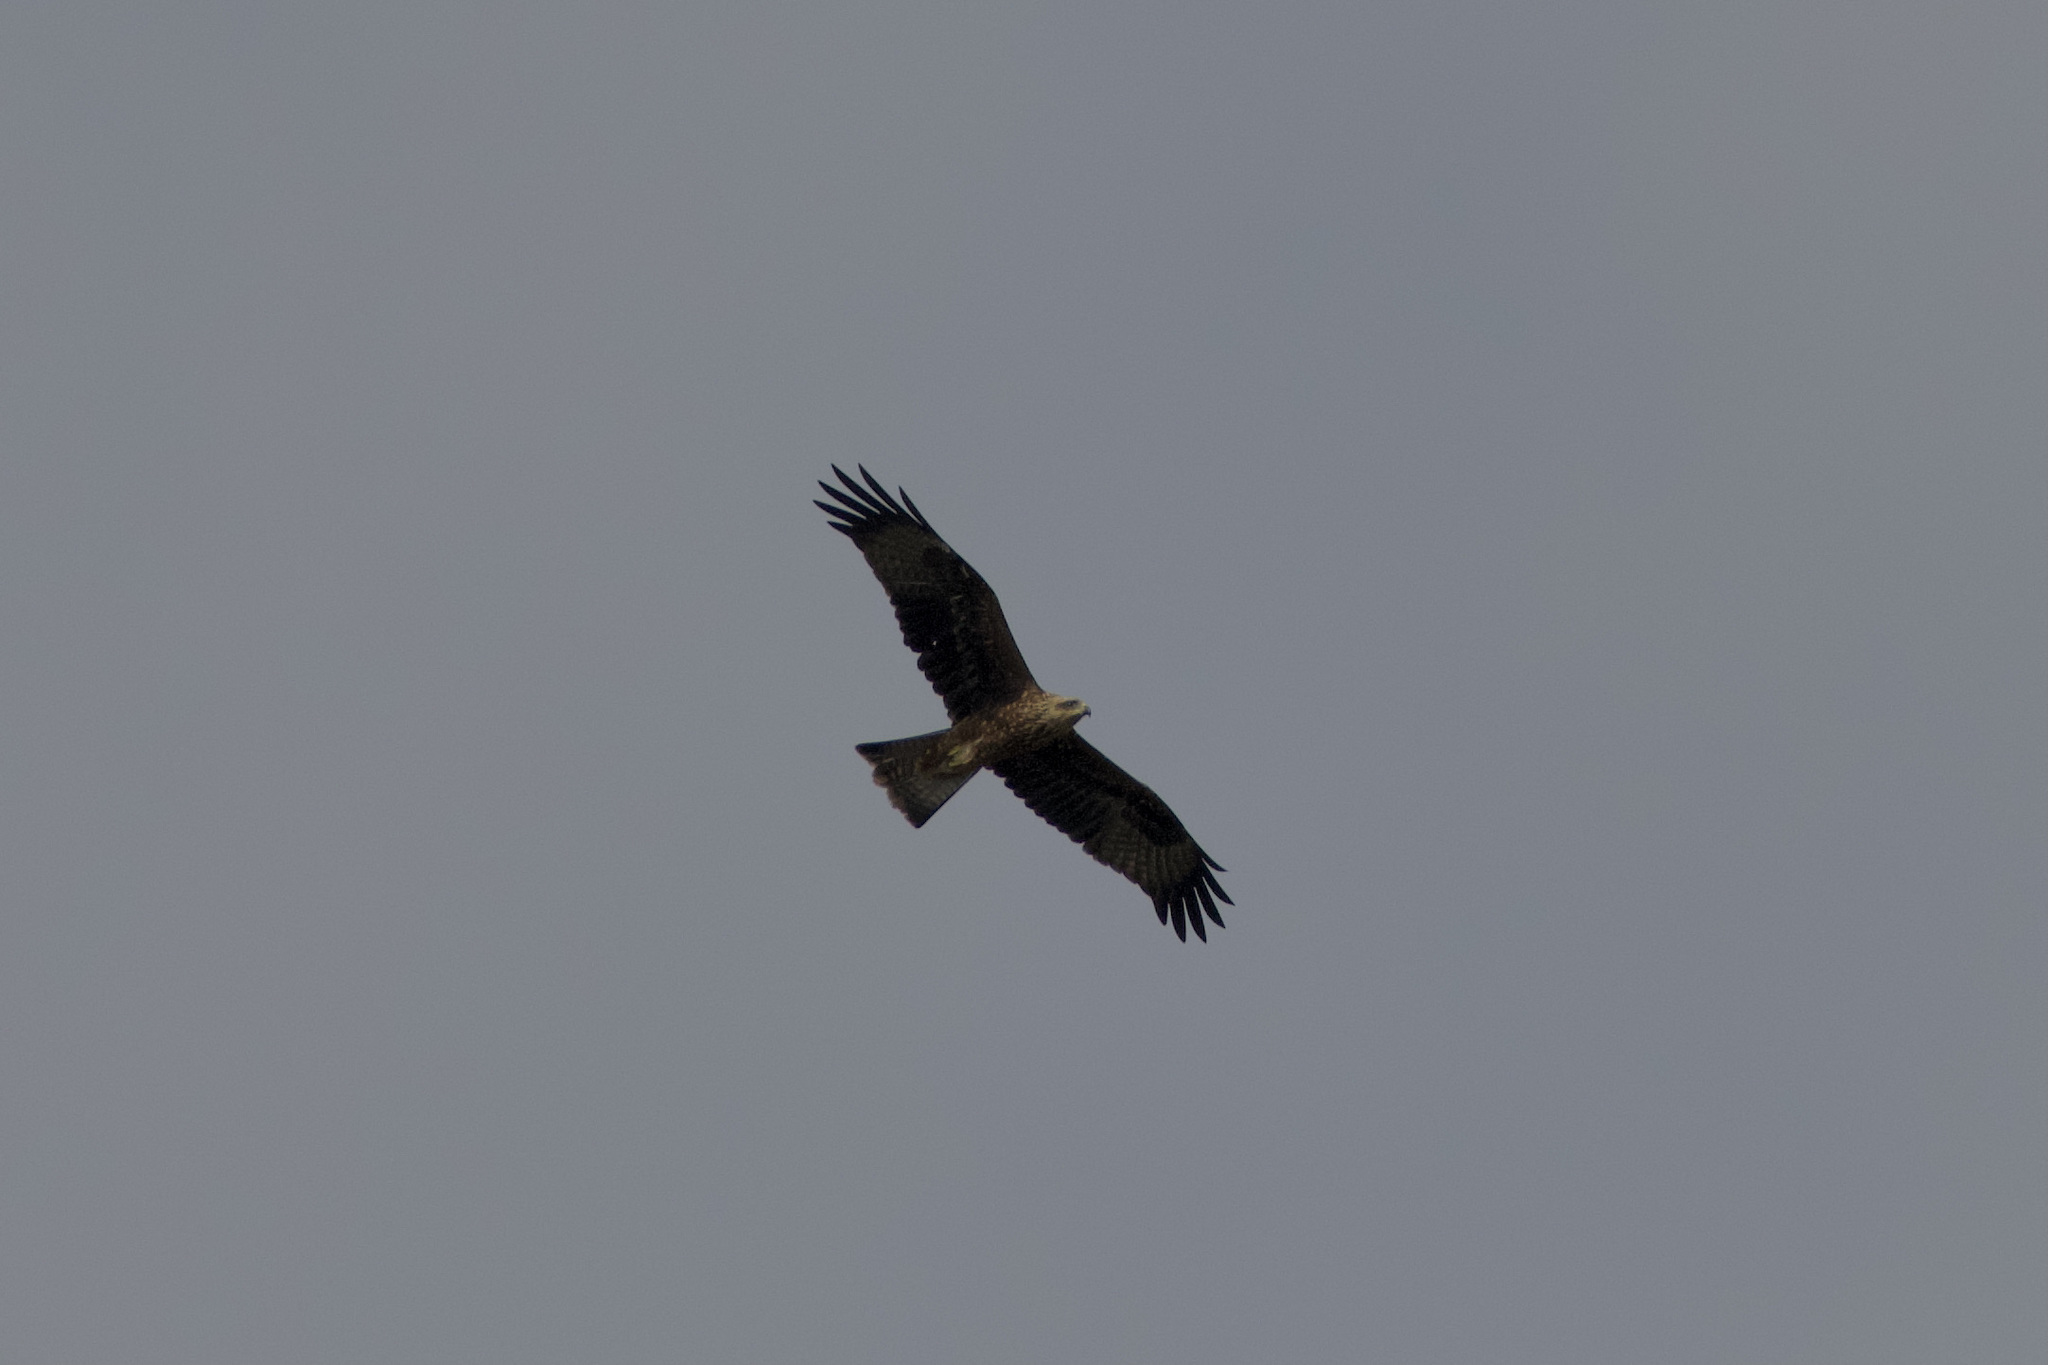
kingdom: Animalia
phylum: Chordata
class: Aves
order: Accipitriformes
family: Accipitridae
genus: Milvus
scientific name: Milvus migrans
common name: Black kite
